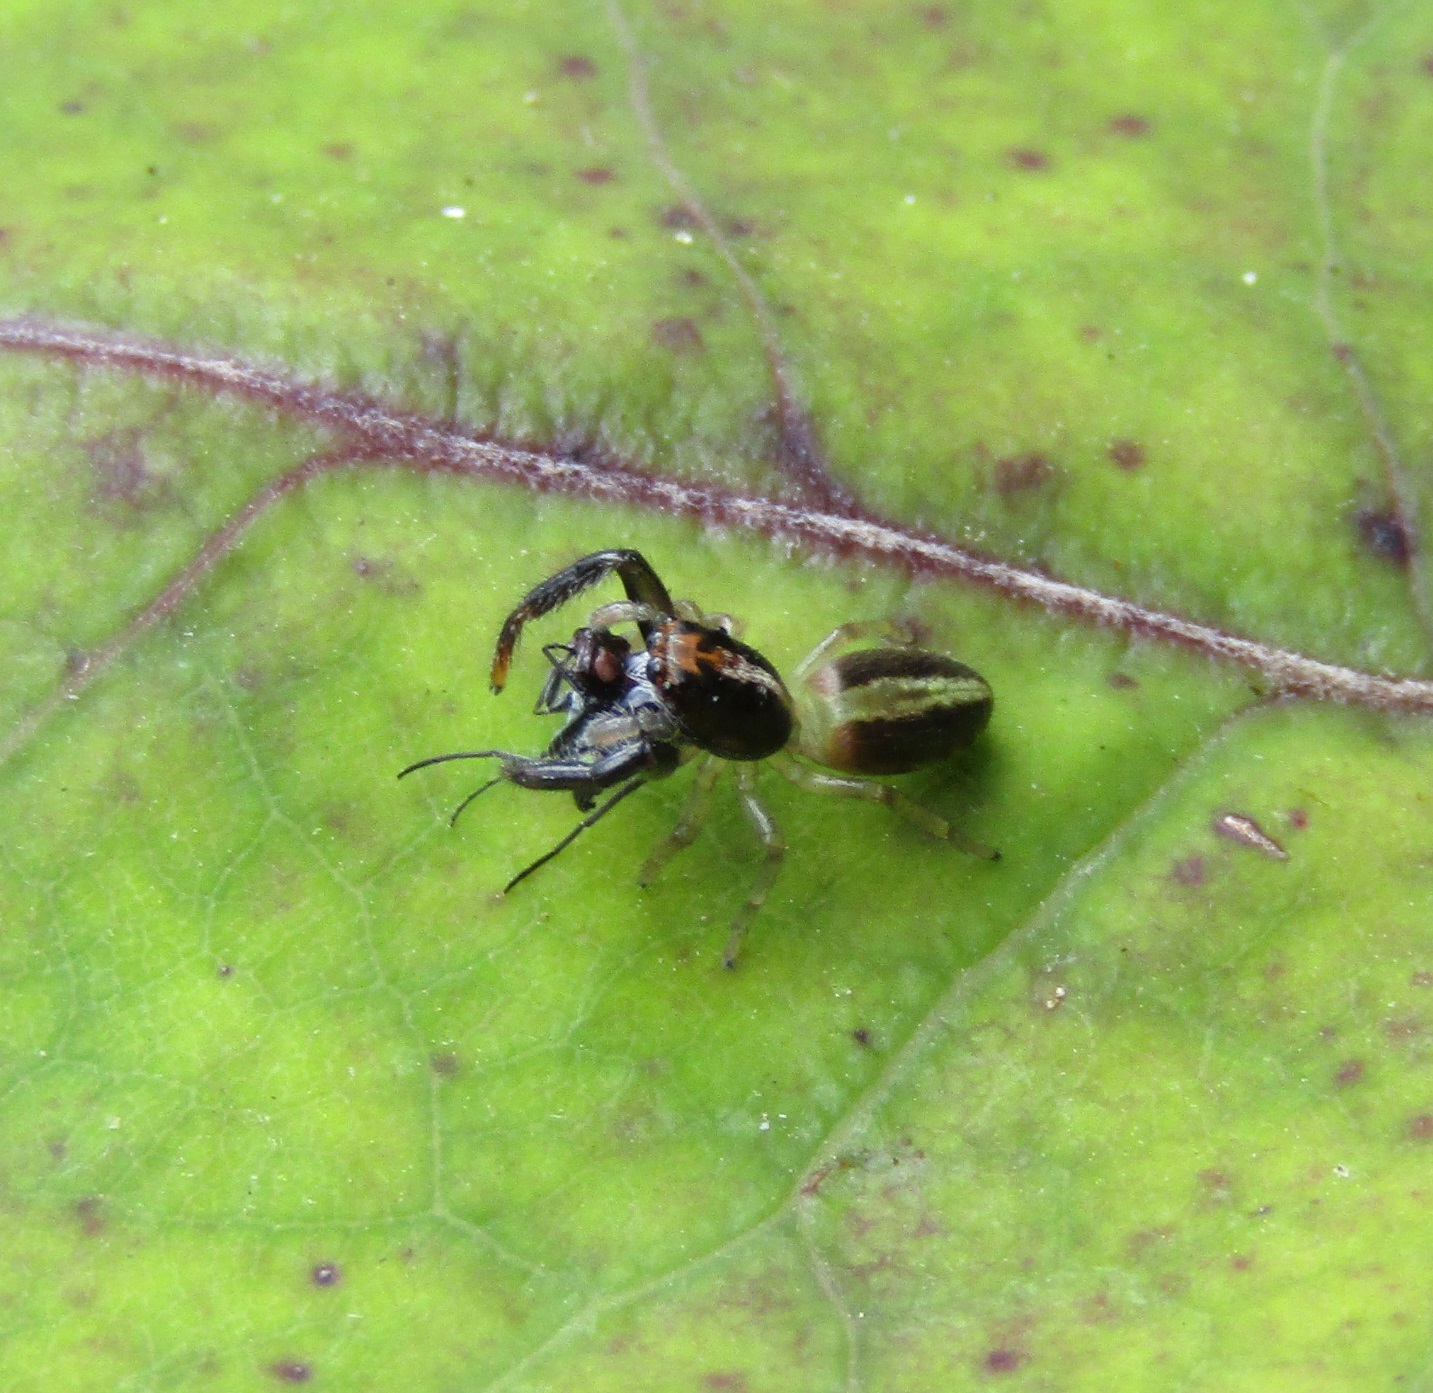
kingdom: Animalia
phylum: Arthropoda
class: Arachnida
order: Araneae
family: Salticidae
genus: Trite
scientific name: Trite planiceps
